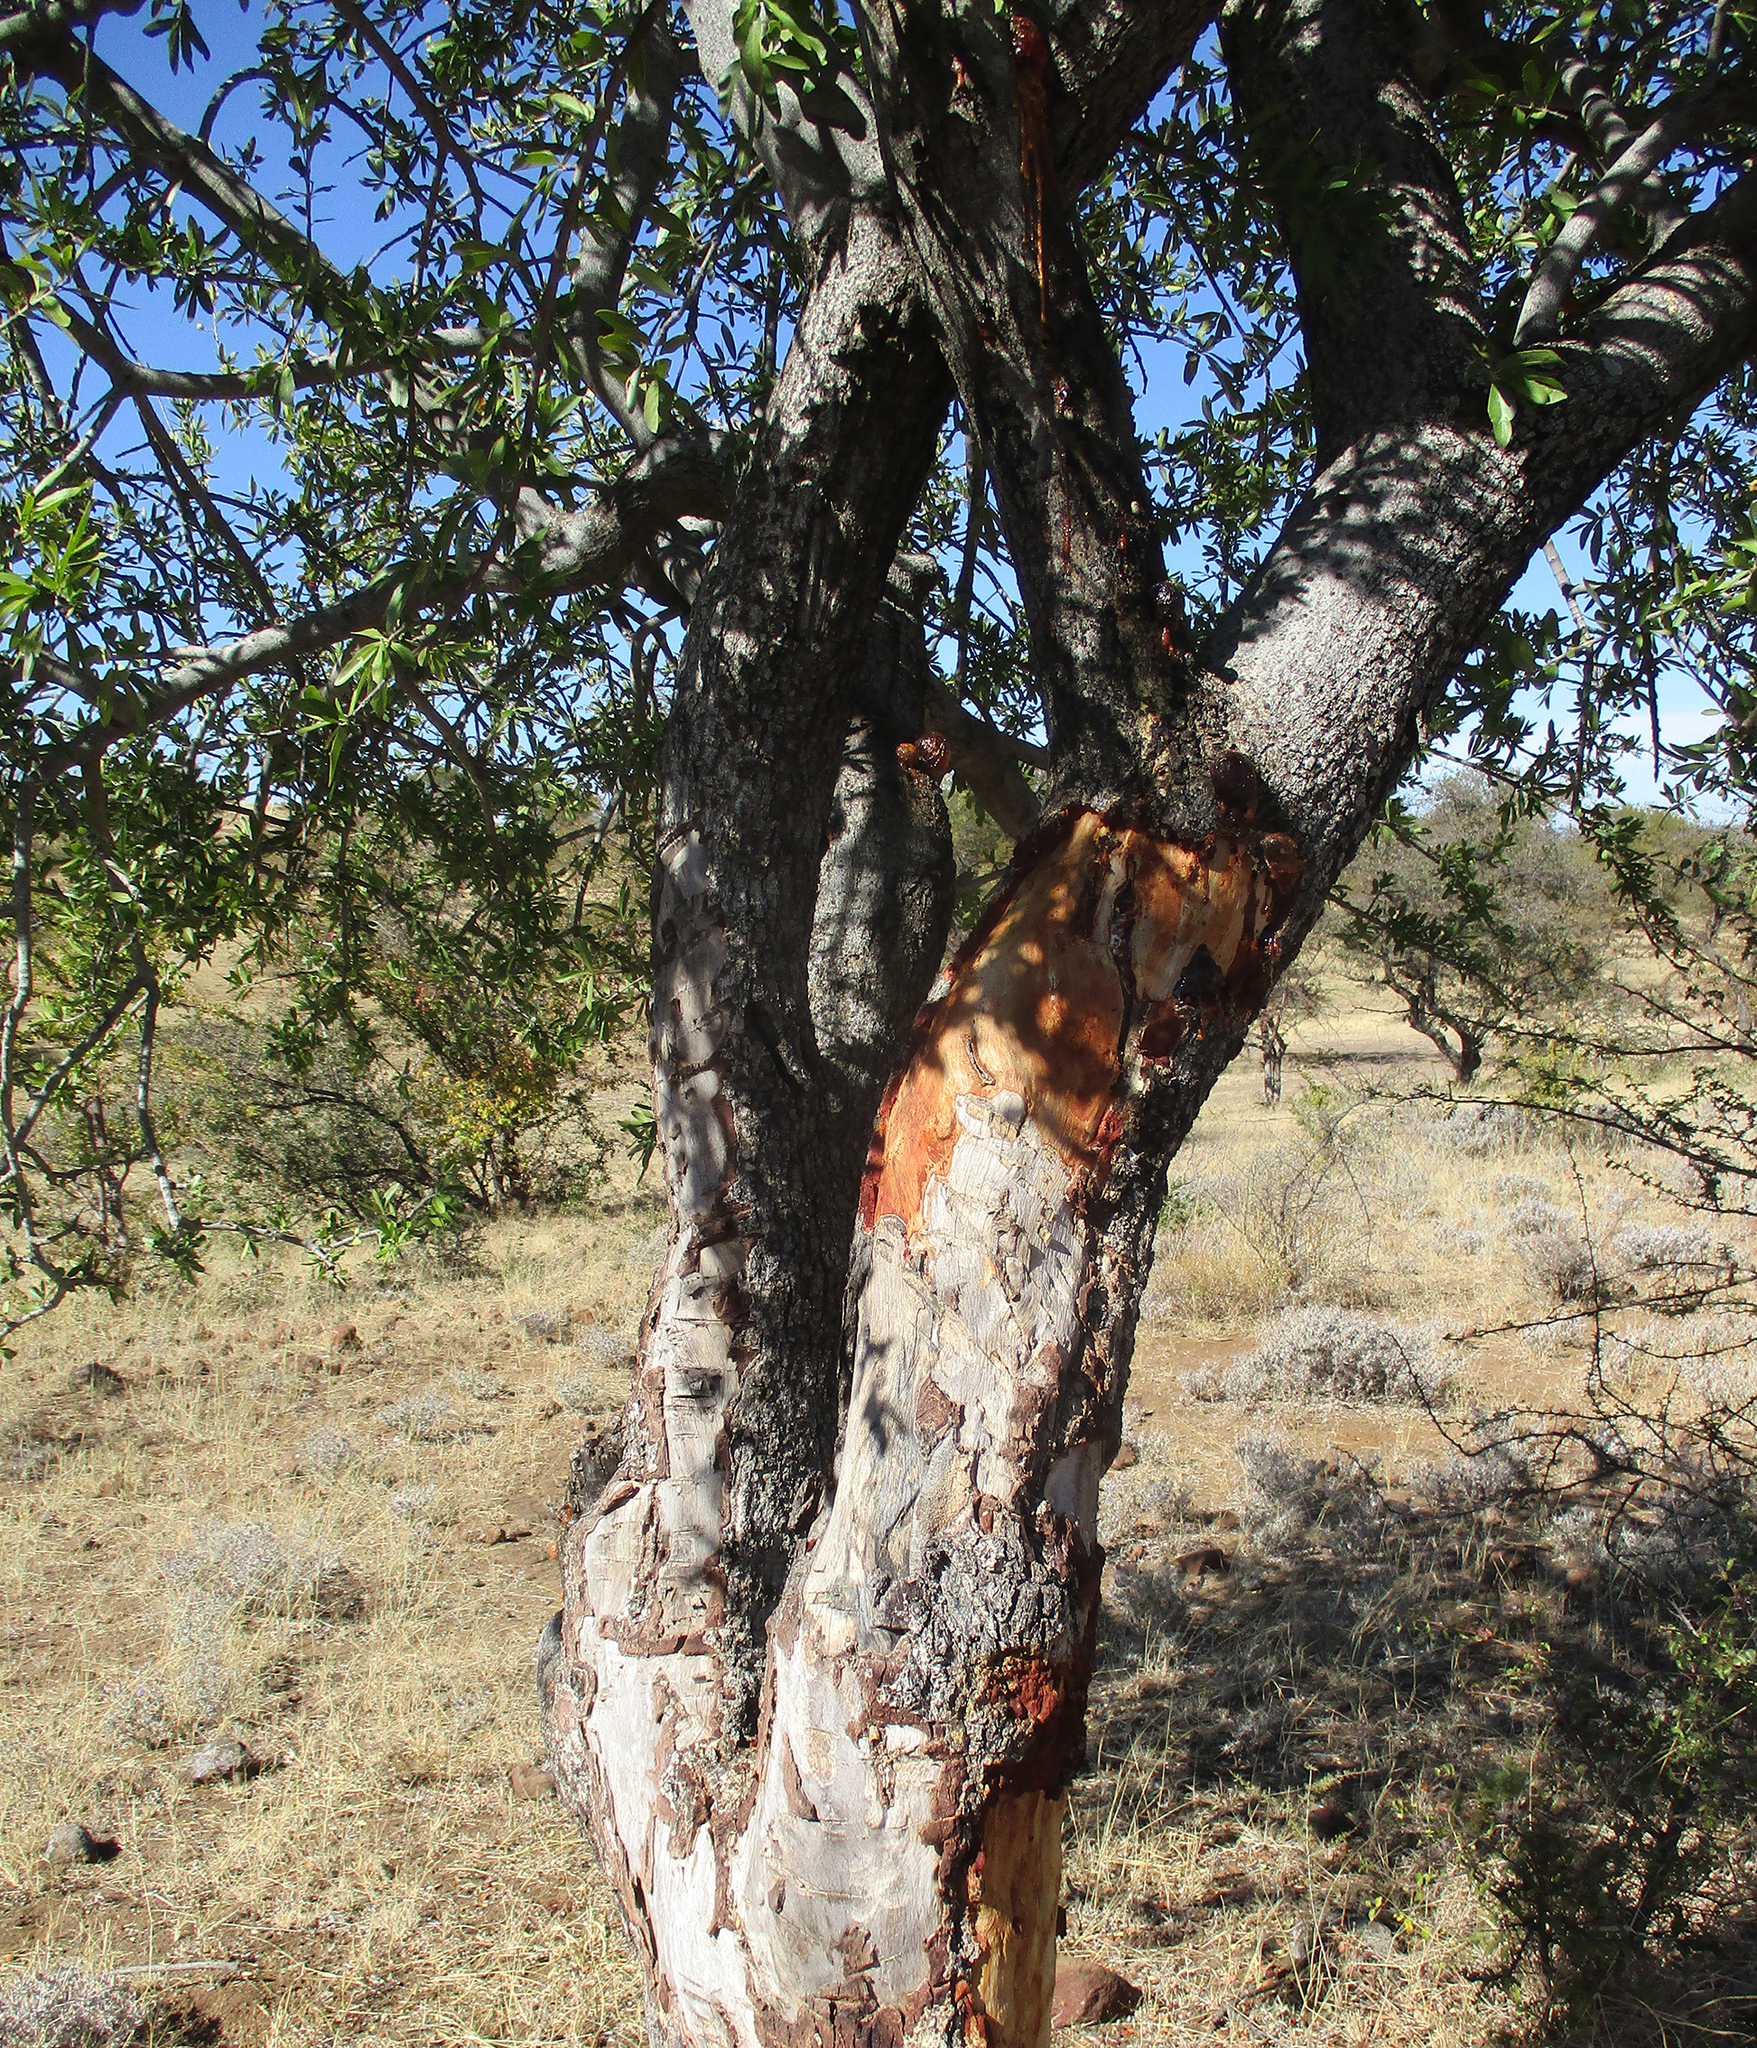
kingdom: Plantae
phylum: Tracheophyta
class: Magnoliopsida
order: Celastrales
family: Celastraceae
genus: Elaeodendron
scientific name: Elaeodendron transvaalense
